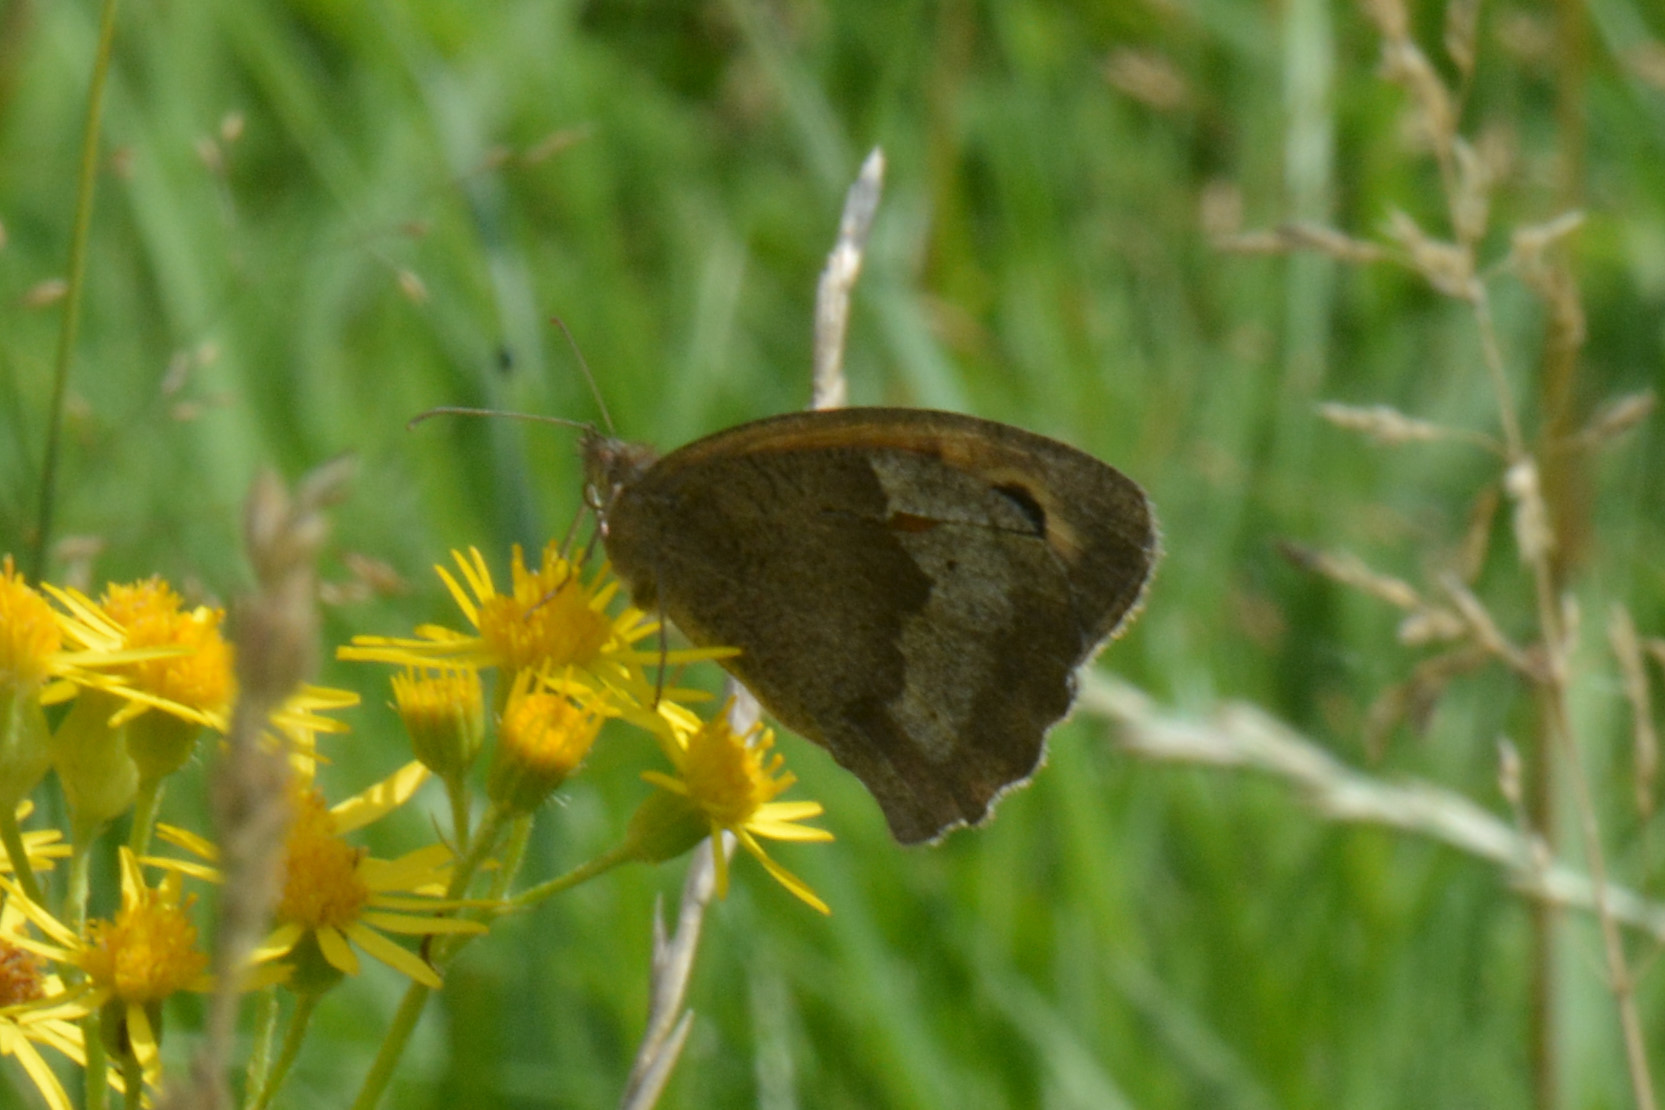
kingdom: Animalia
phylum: Arthropoda
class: Insecta
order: Lepidoptera
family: Nymphalidae
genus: Maniola
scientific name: Maniola jurtina
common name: Meadow brown
